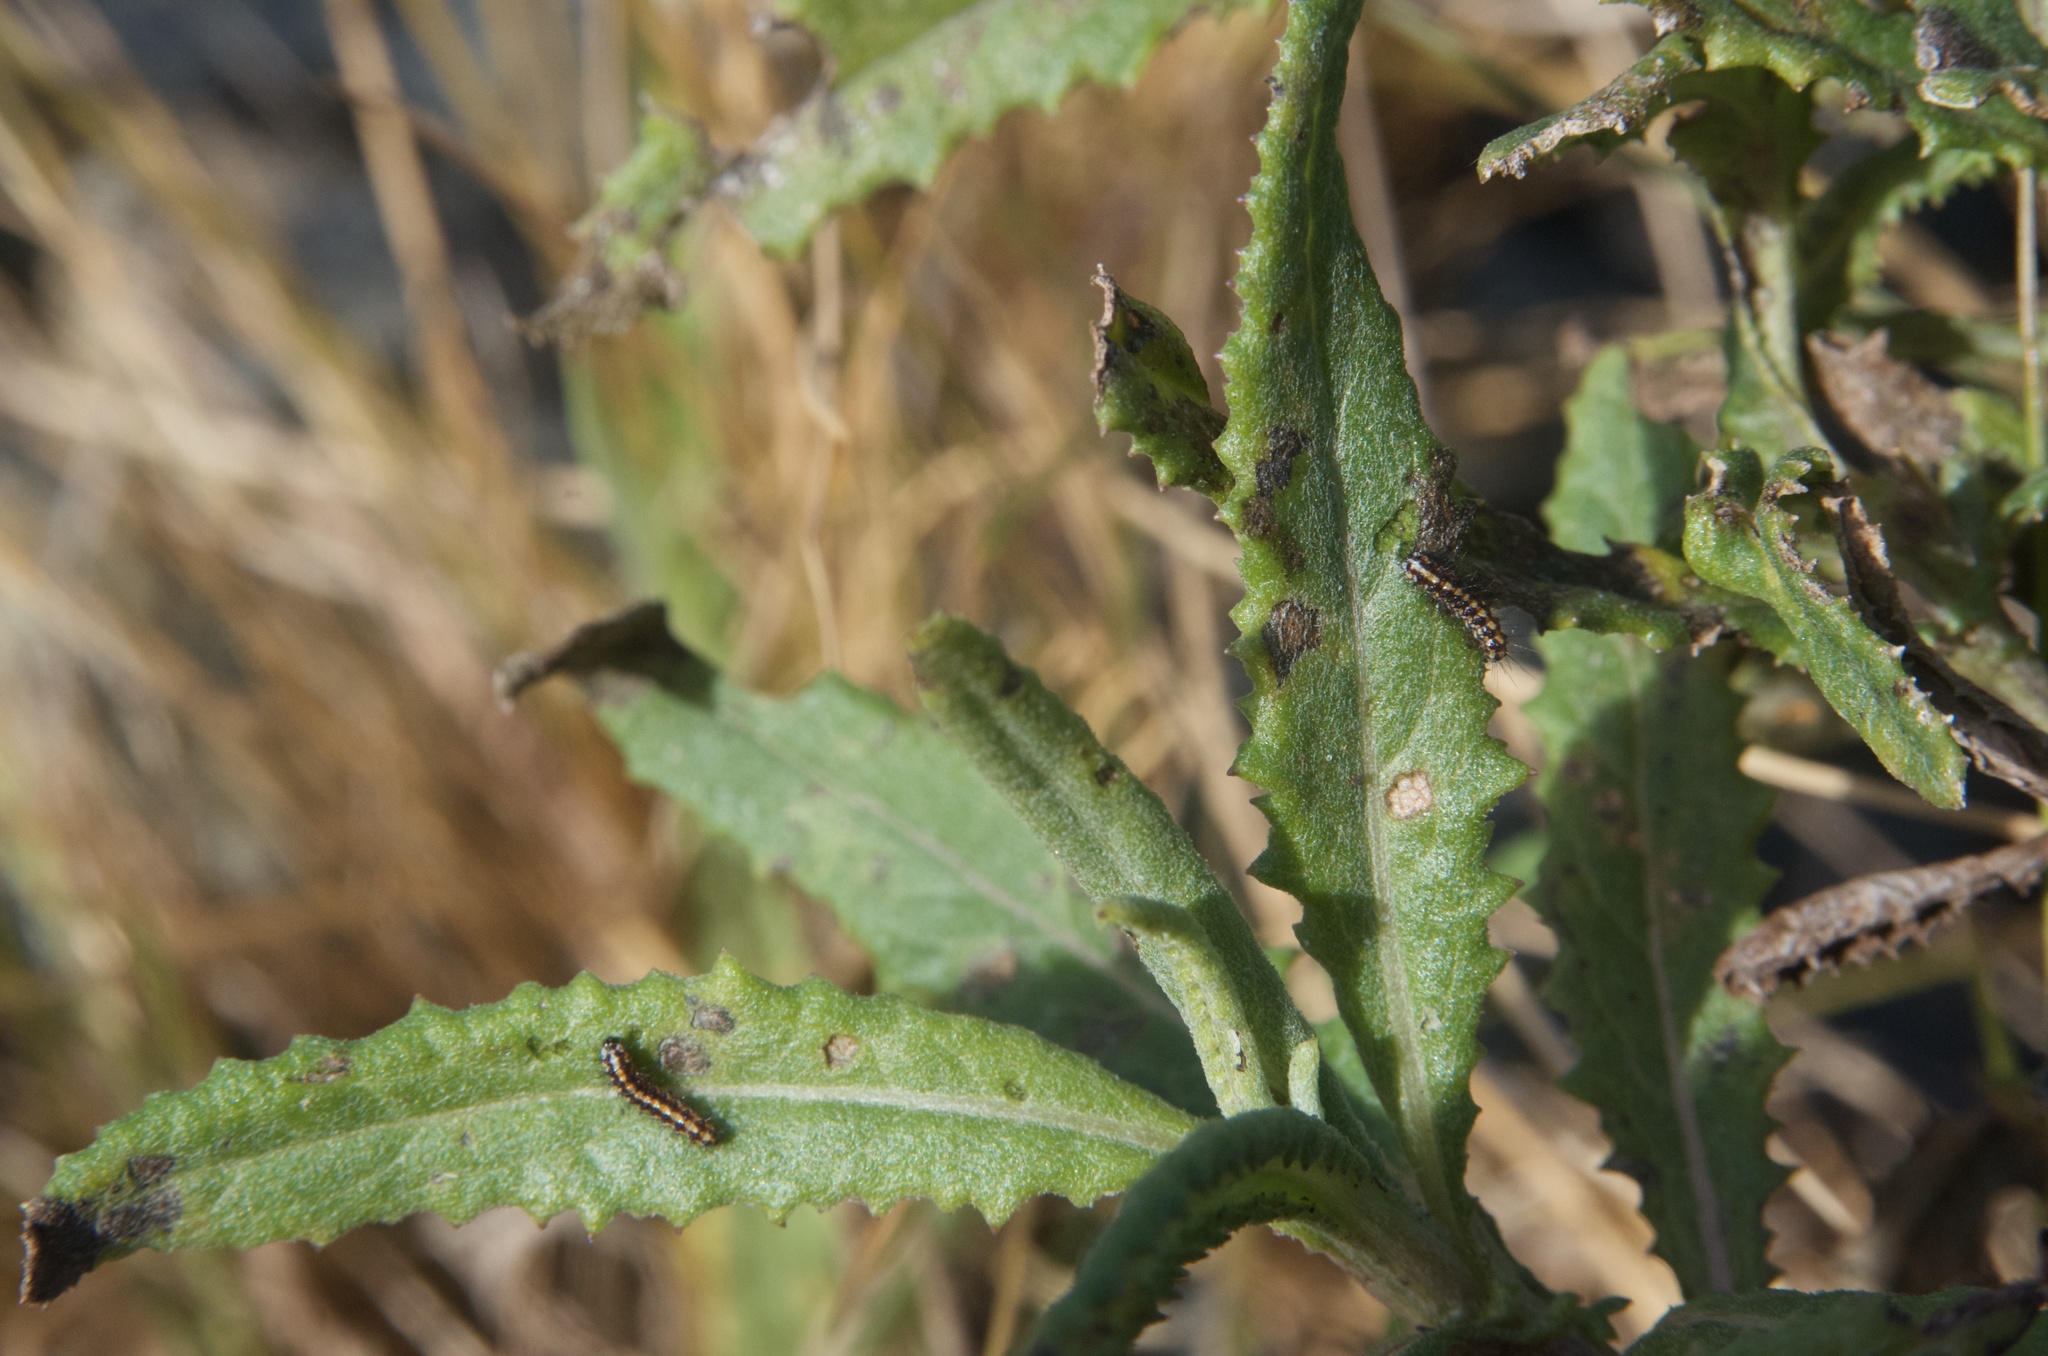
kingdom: Animalia
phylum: Arthropoda
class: Insecta
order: Lepidoptera
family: Erebidae
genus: Nyctemera
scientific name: Nyctemera annulatum
